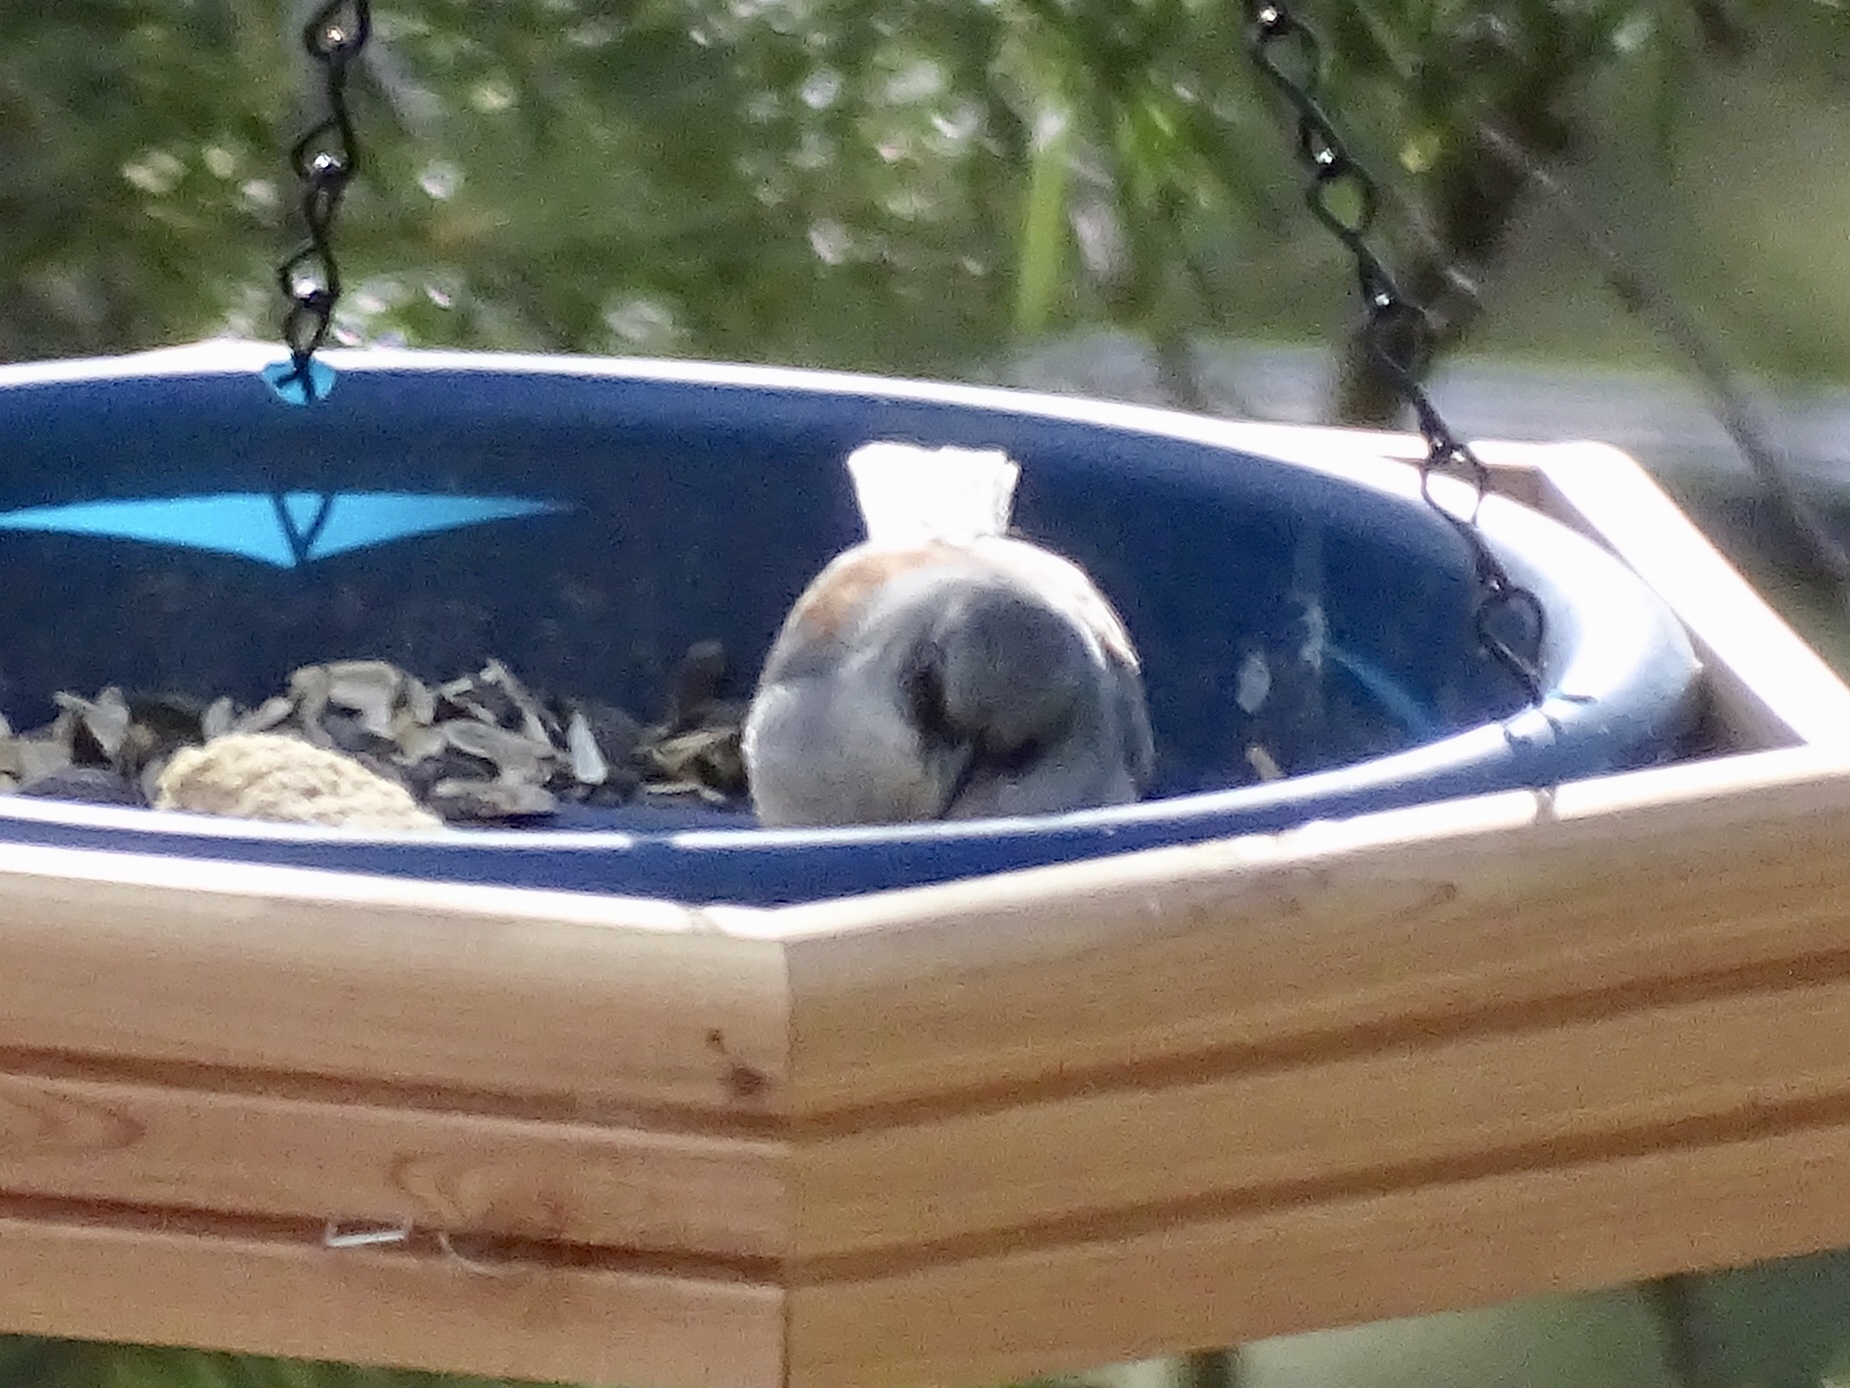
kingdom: Animalia
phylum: Chordata
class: Aves
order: Passeriformes
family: Passerellidae
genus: Junco
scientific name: Junco hyemalis
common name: Dark-eyed junco
